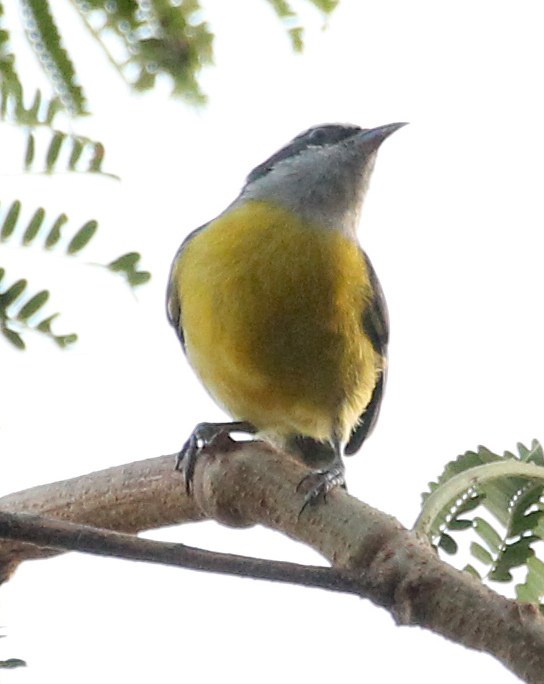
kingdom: Animalia
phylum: Chordata
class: Aves
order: Passeriformes
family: Thraupidae
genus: Coereba
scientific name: Coereba flaveola
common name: Bananaquit
